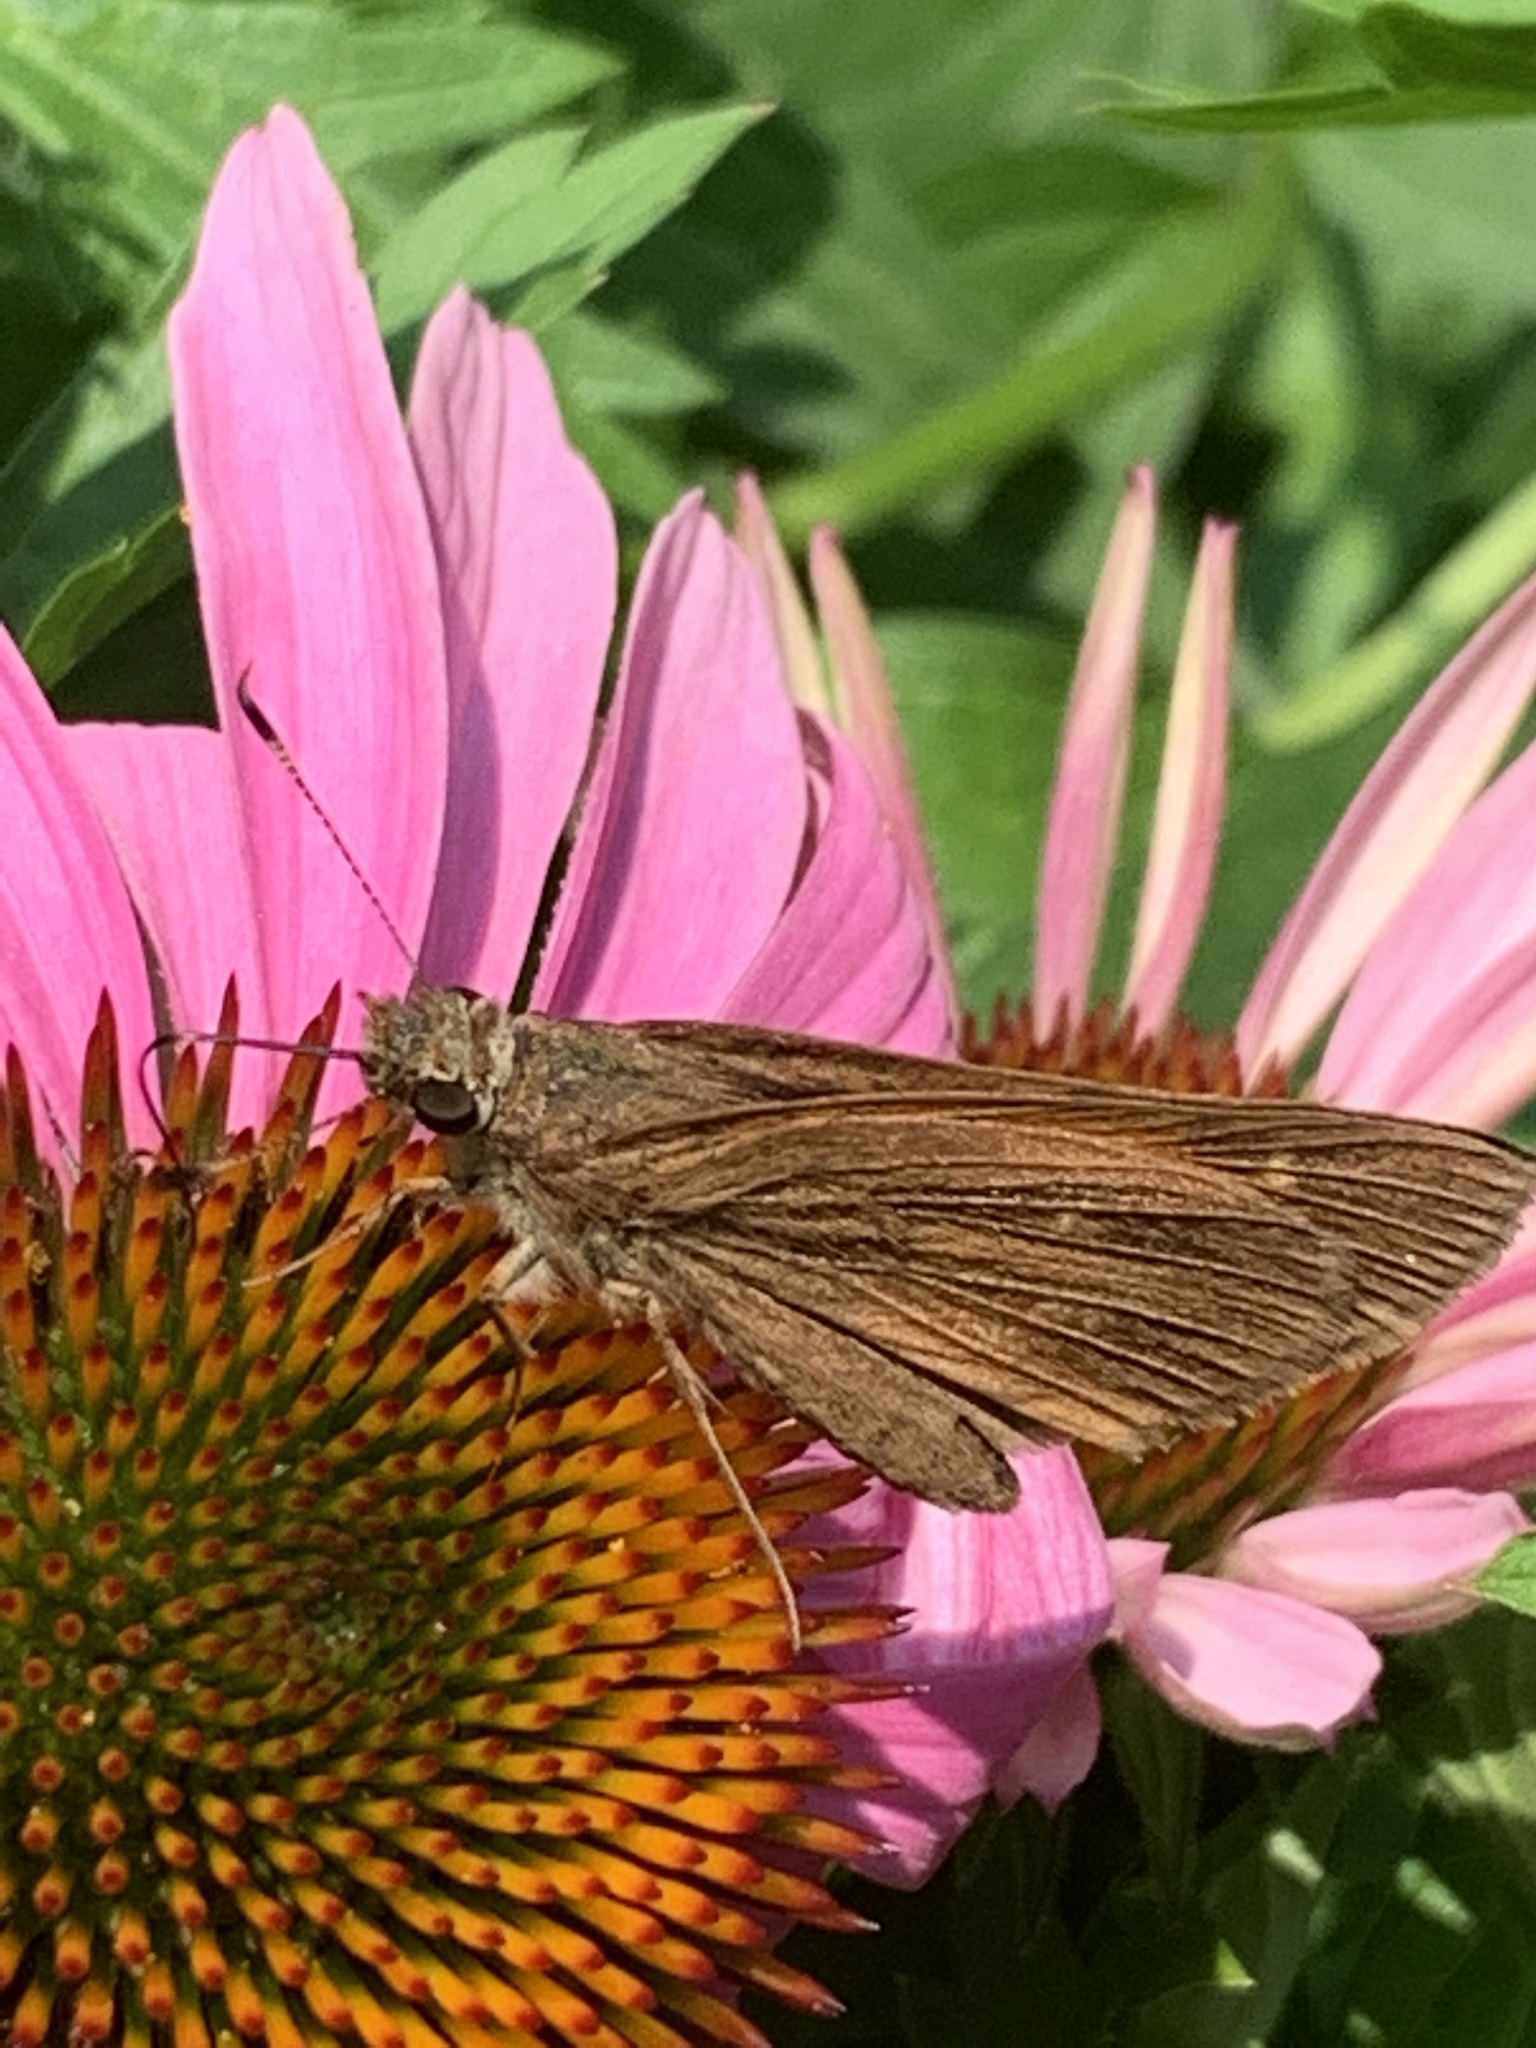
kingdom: Animalia
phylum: Arthropoda
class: Insecta
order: Lepidoptera
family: Hesperiidae
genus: Poanes
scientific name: Poanes viator
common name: Broad-winged skipper
